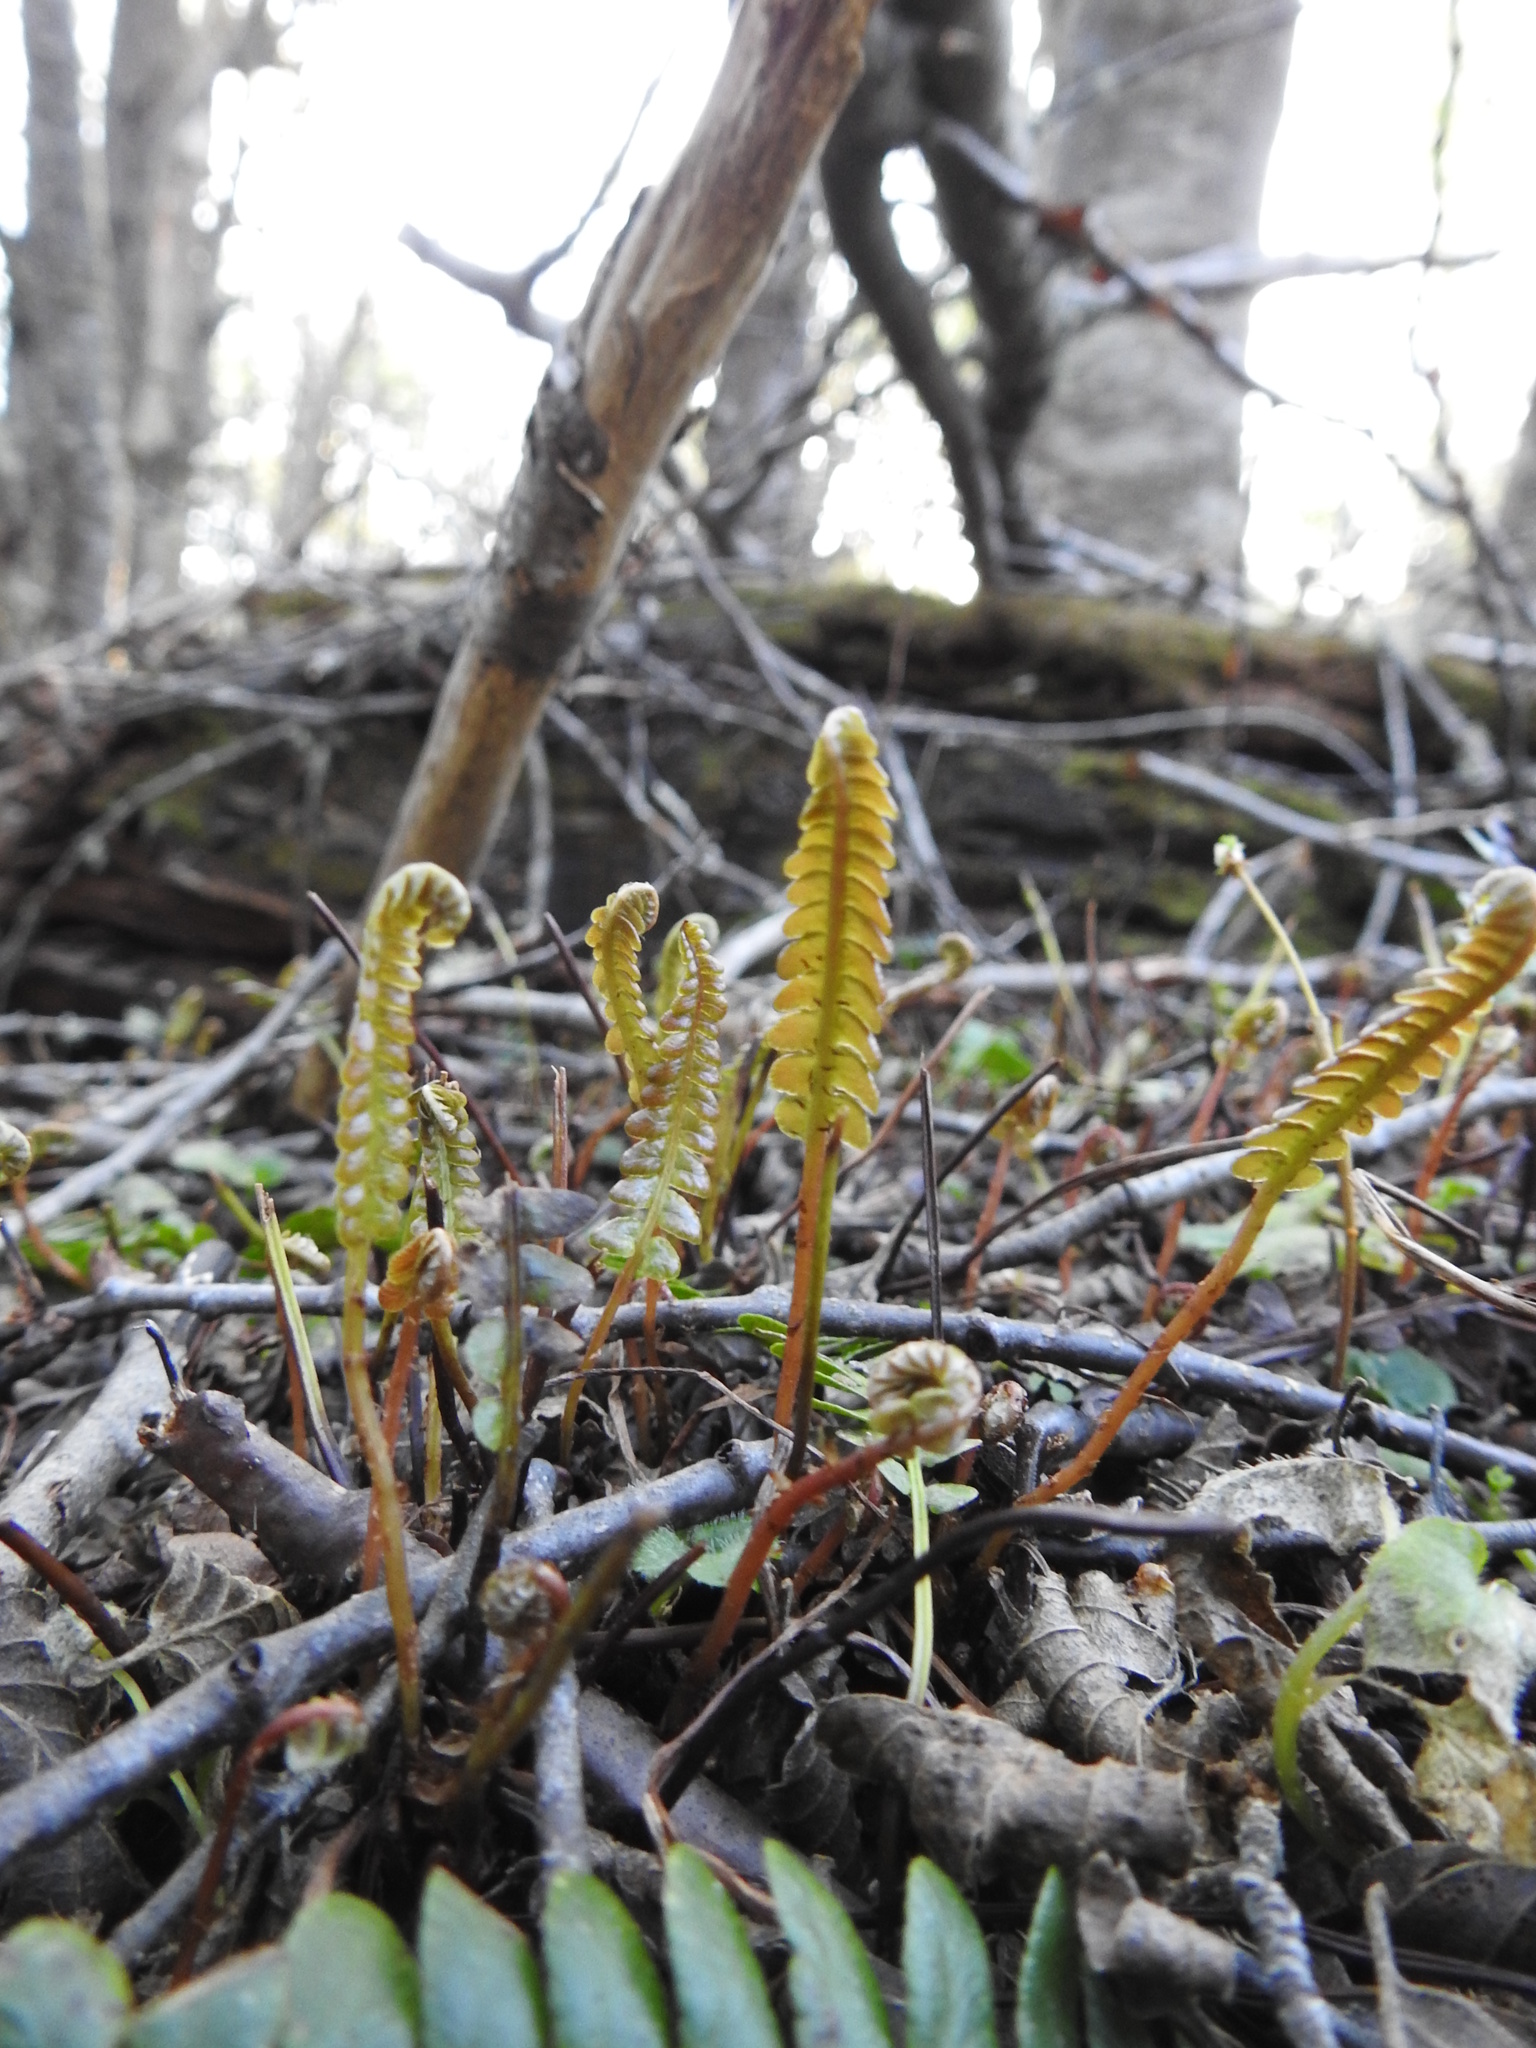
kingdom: Plantae
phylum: Tracheophyta
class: Polypodiopsida
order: Polypodiales
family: Blechnaceae
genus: Austroblechnum
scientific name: Austroblechnum penna-marina
